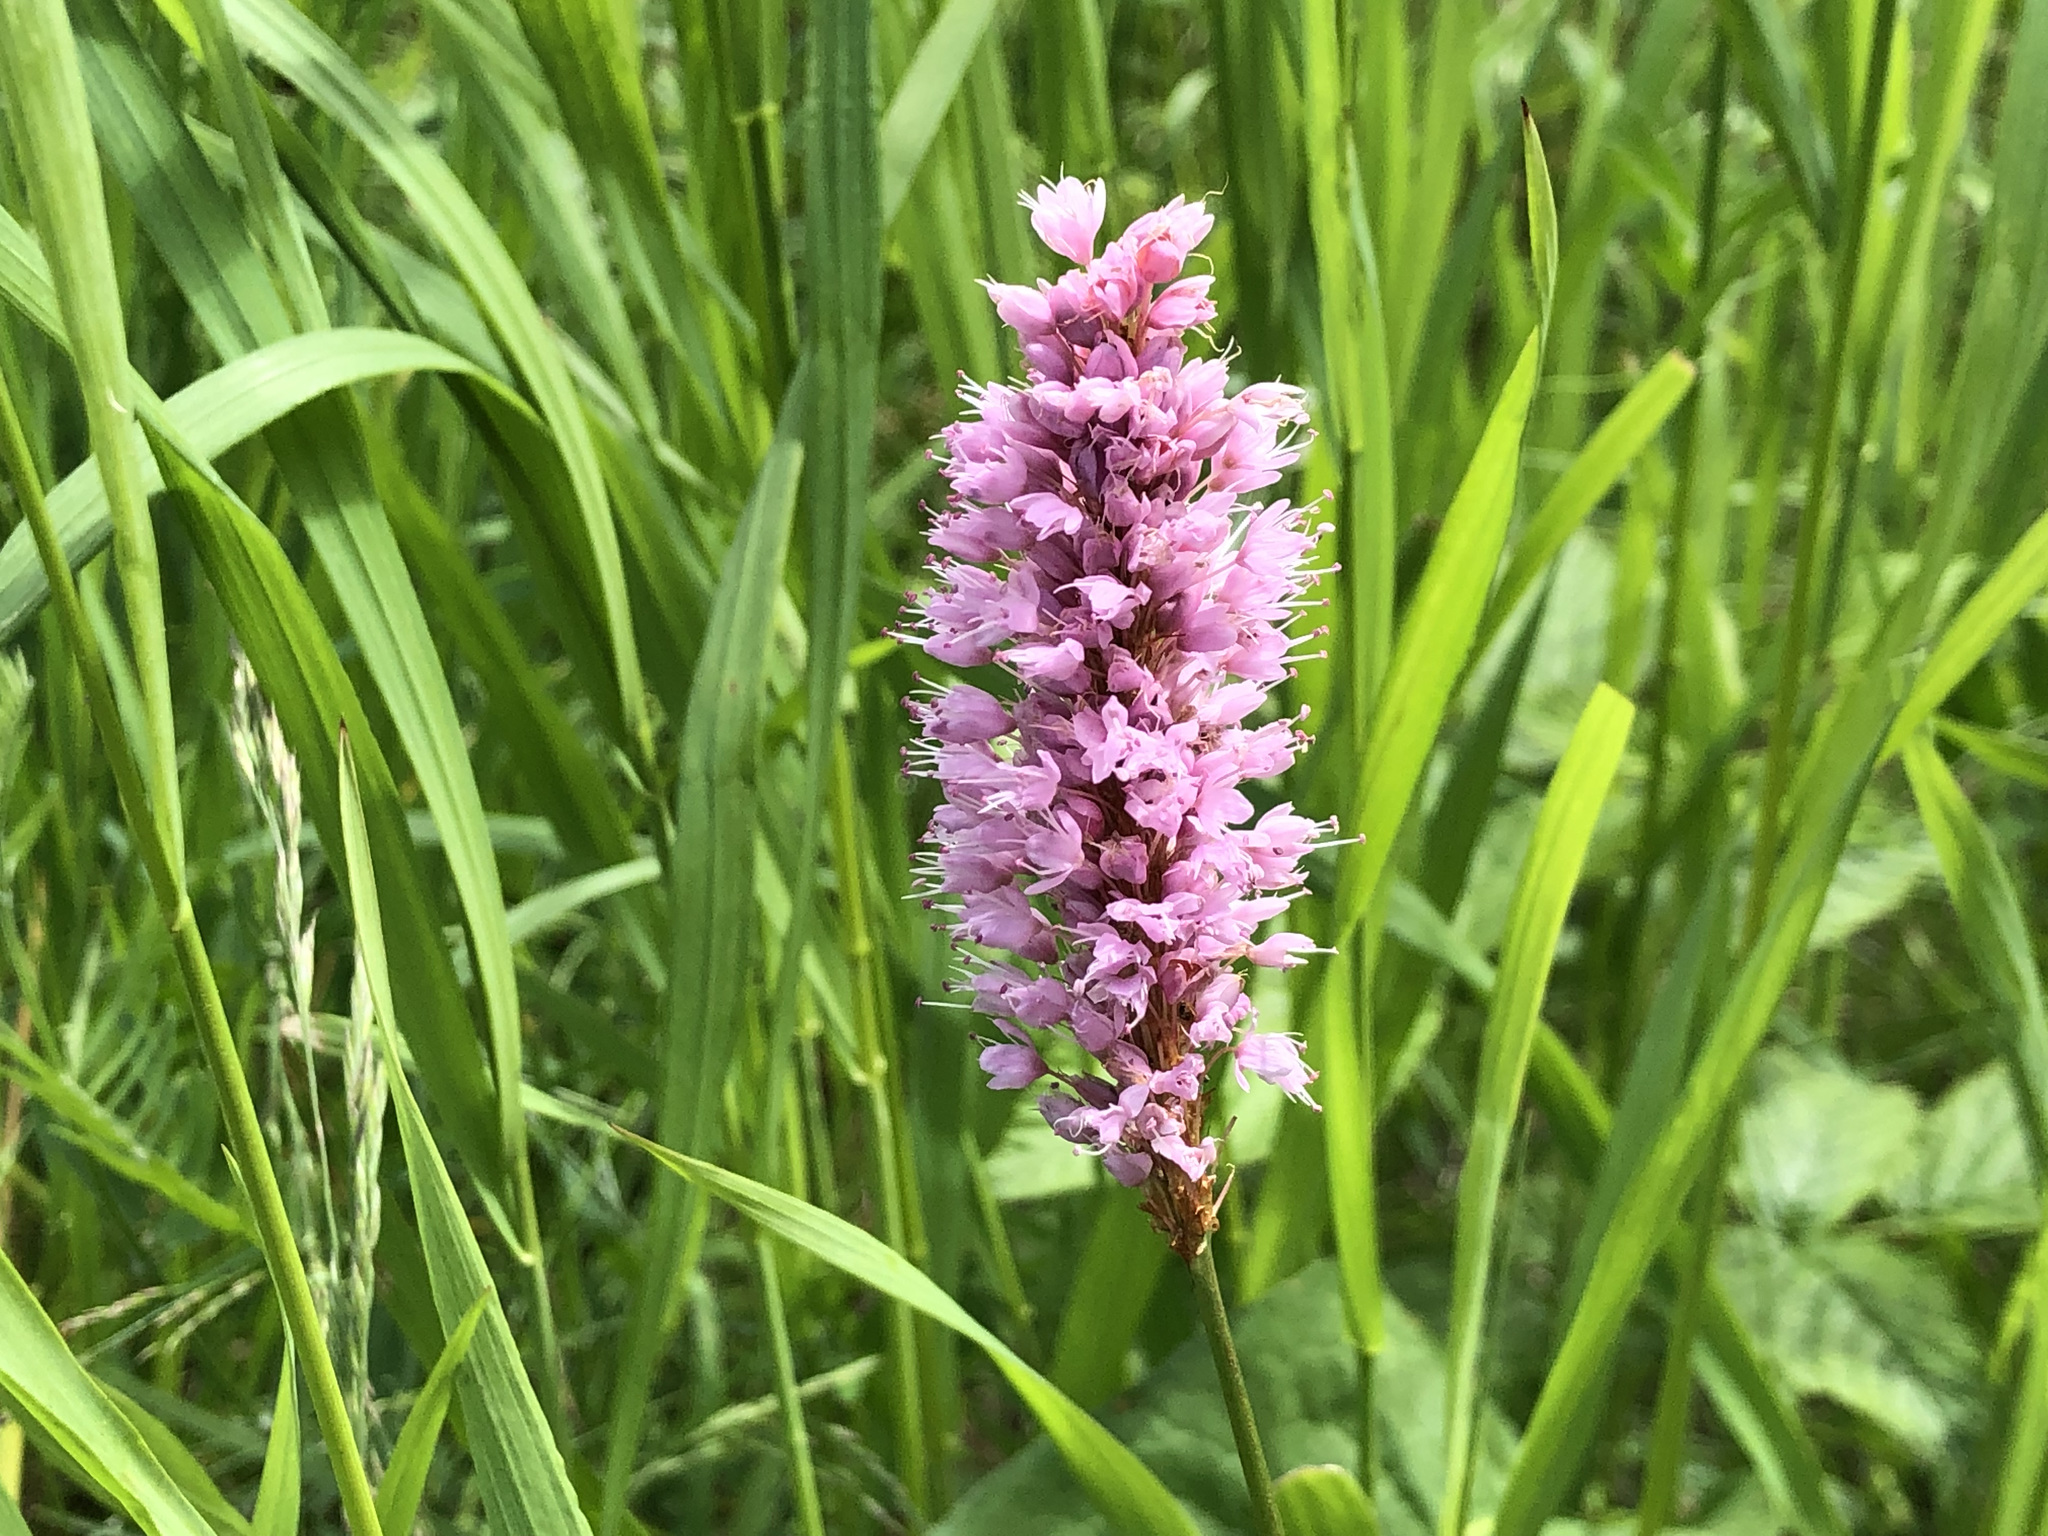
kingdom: Plantae
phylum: Tracheophyta
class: Magnoliopsida
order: Caryophyllales
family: Polygonaceae
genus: Bistorta
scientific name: Bistorta officinalis
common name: Common bistort
